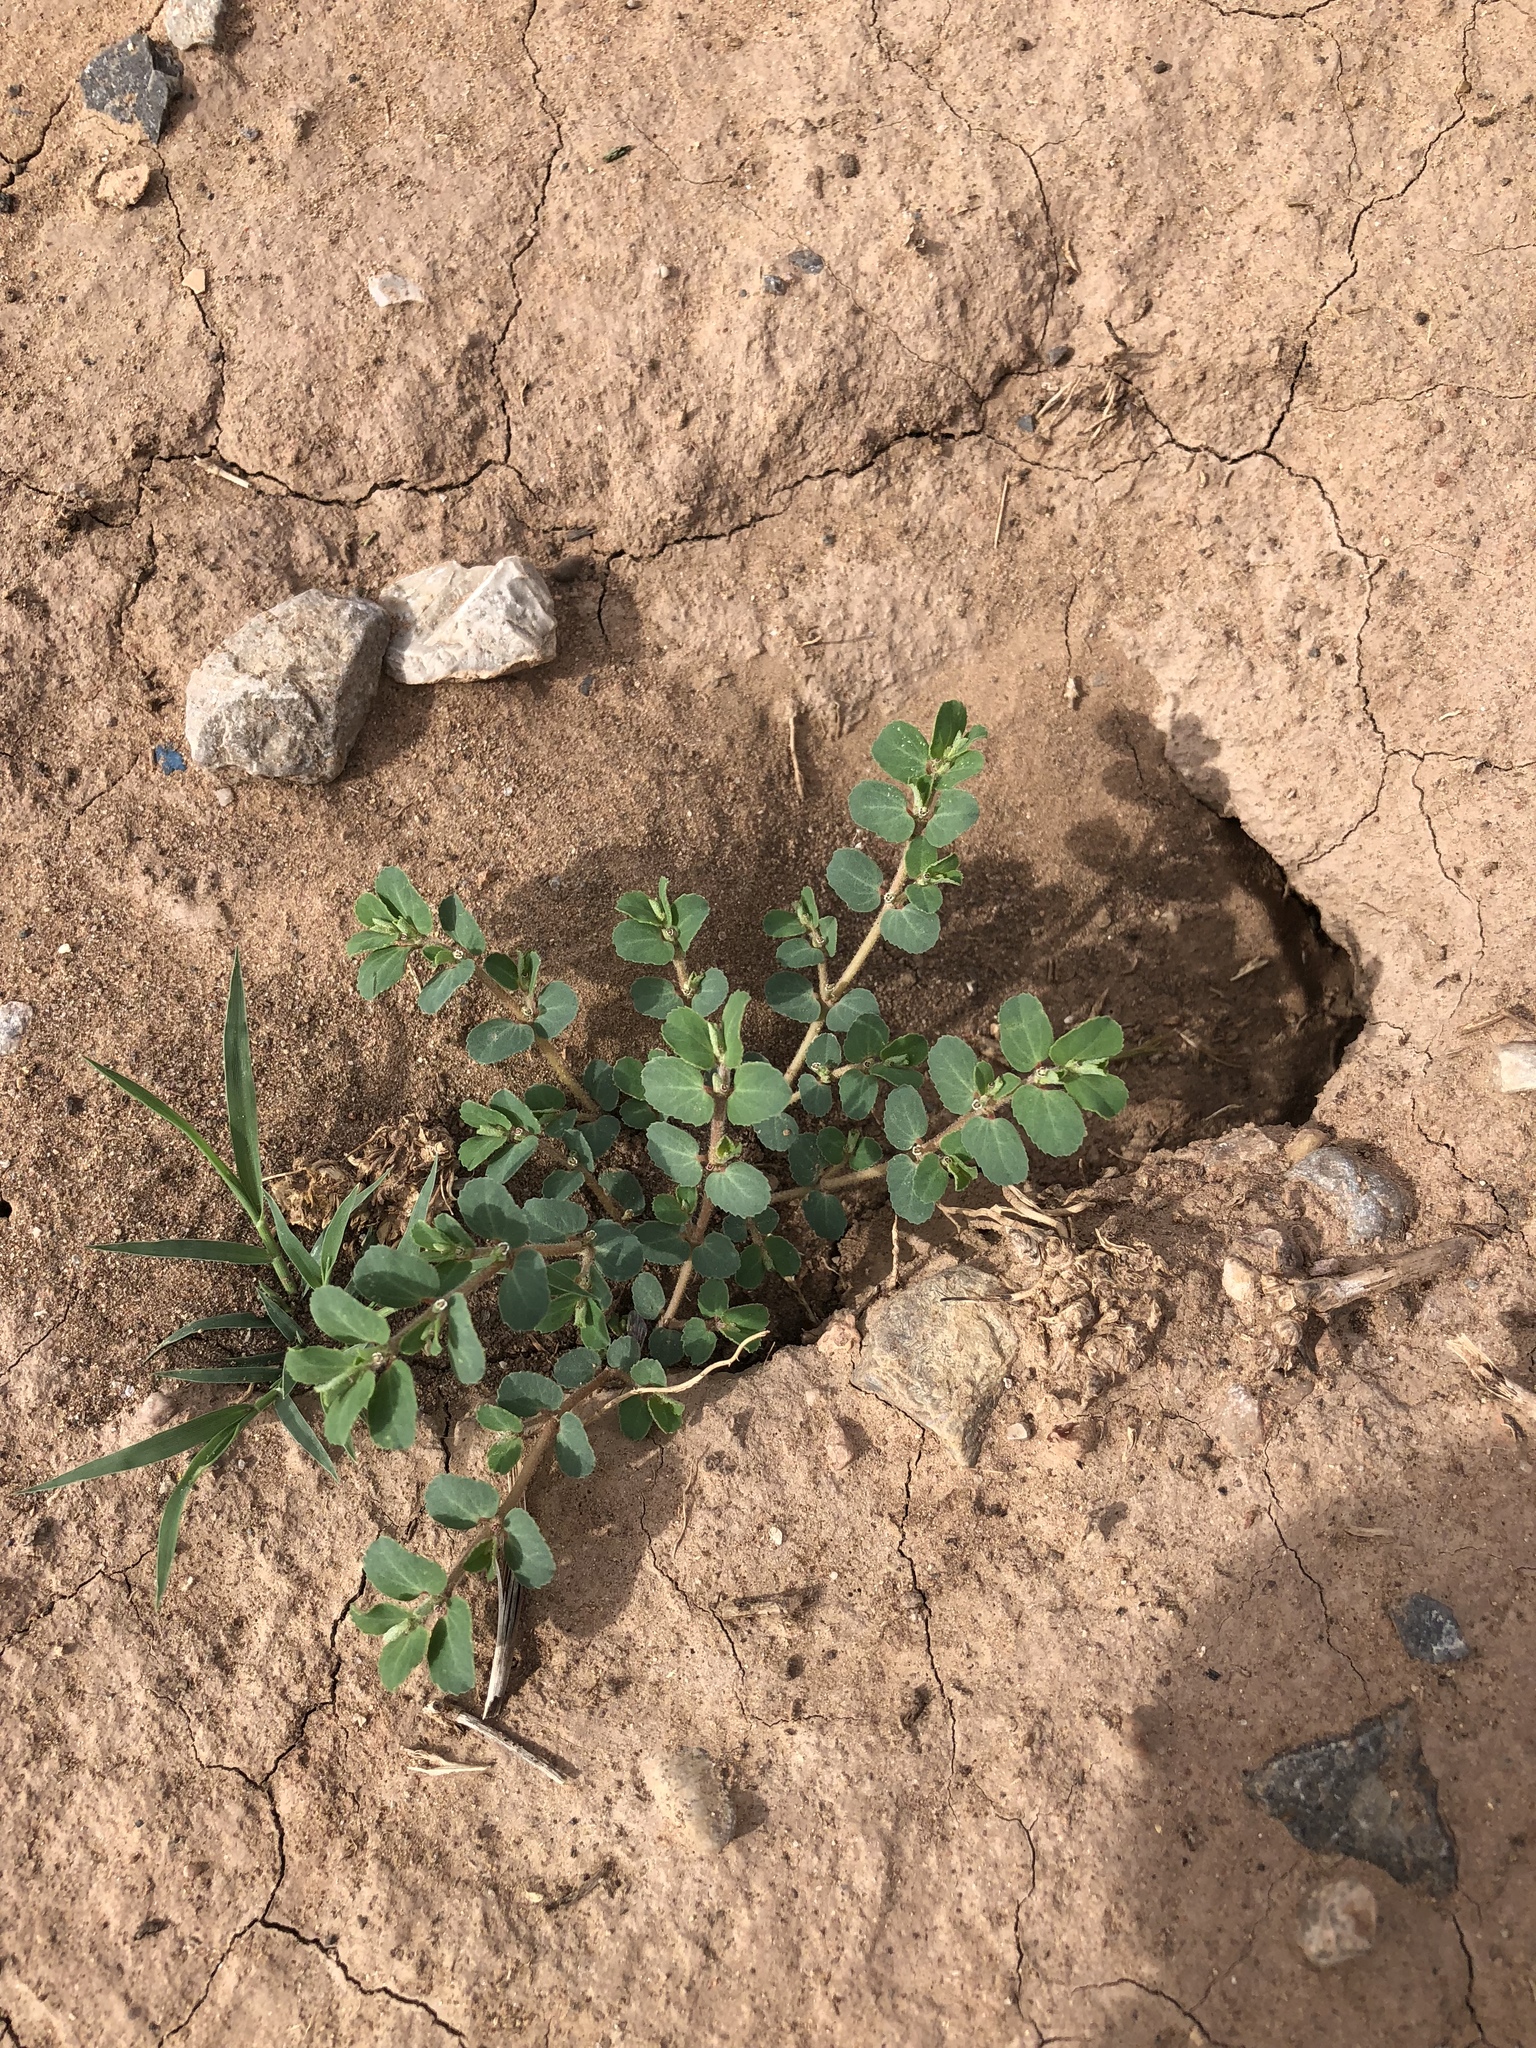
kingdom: Plantae
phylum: Tracheophyta
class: Magnoliopsida
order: Malpighiales
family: Euphorbiaceae
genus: Euphorbia
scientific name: Euphorbia stictospora
